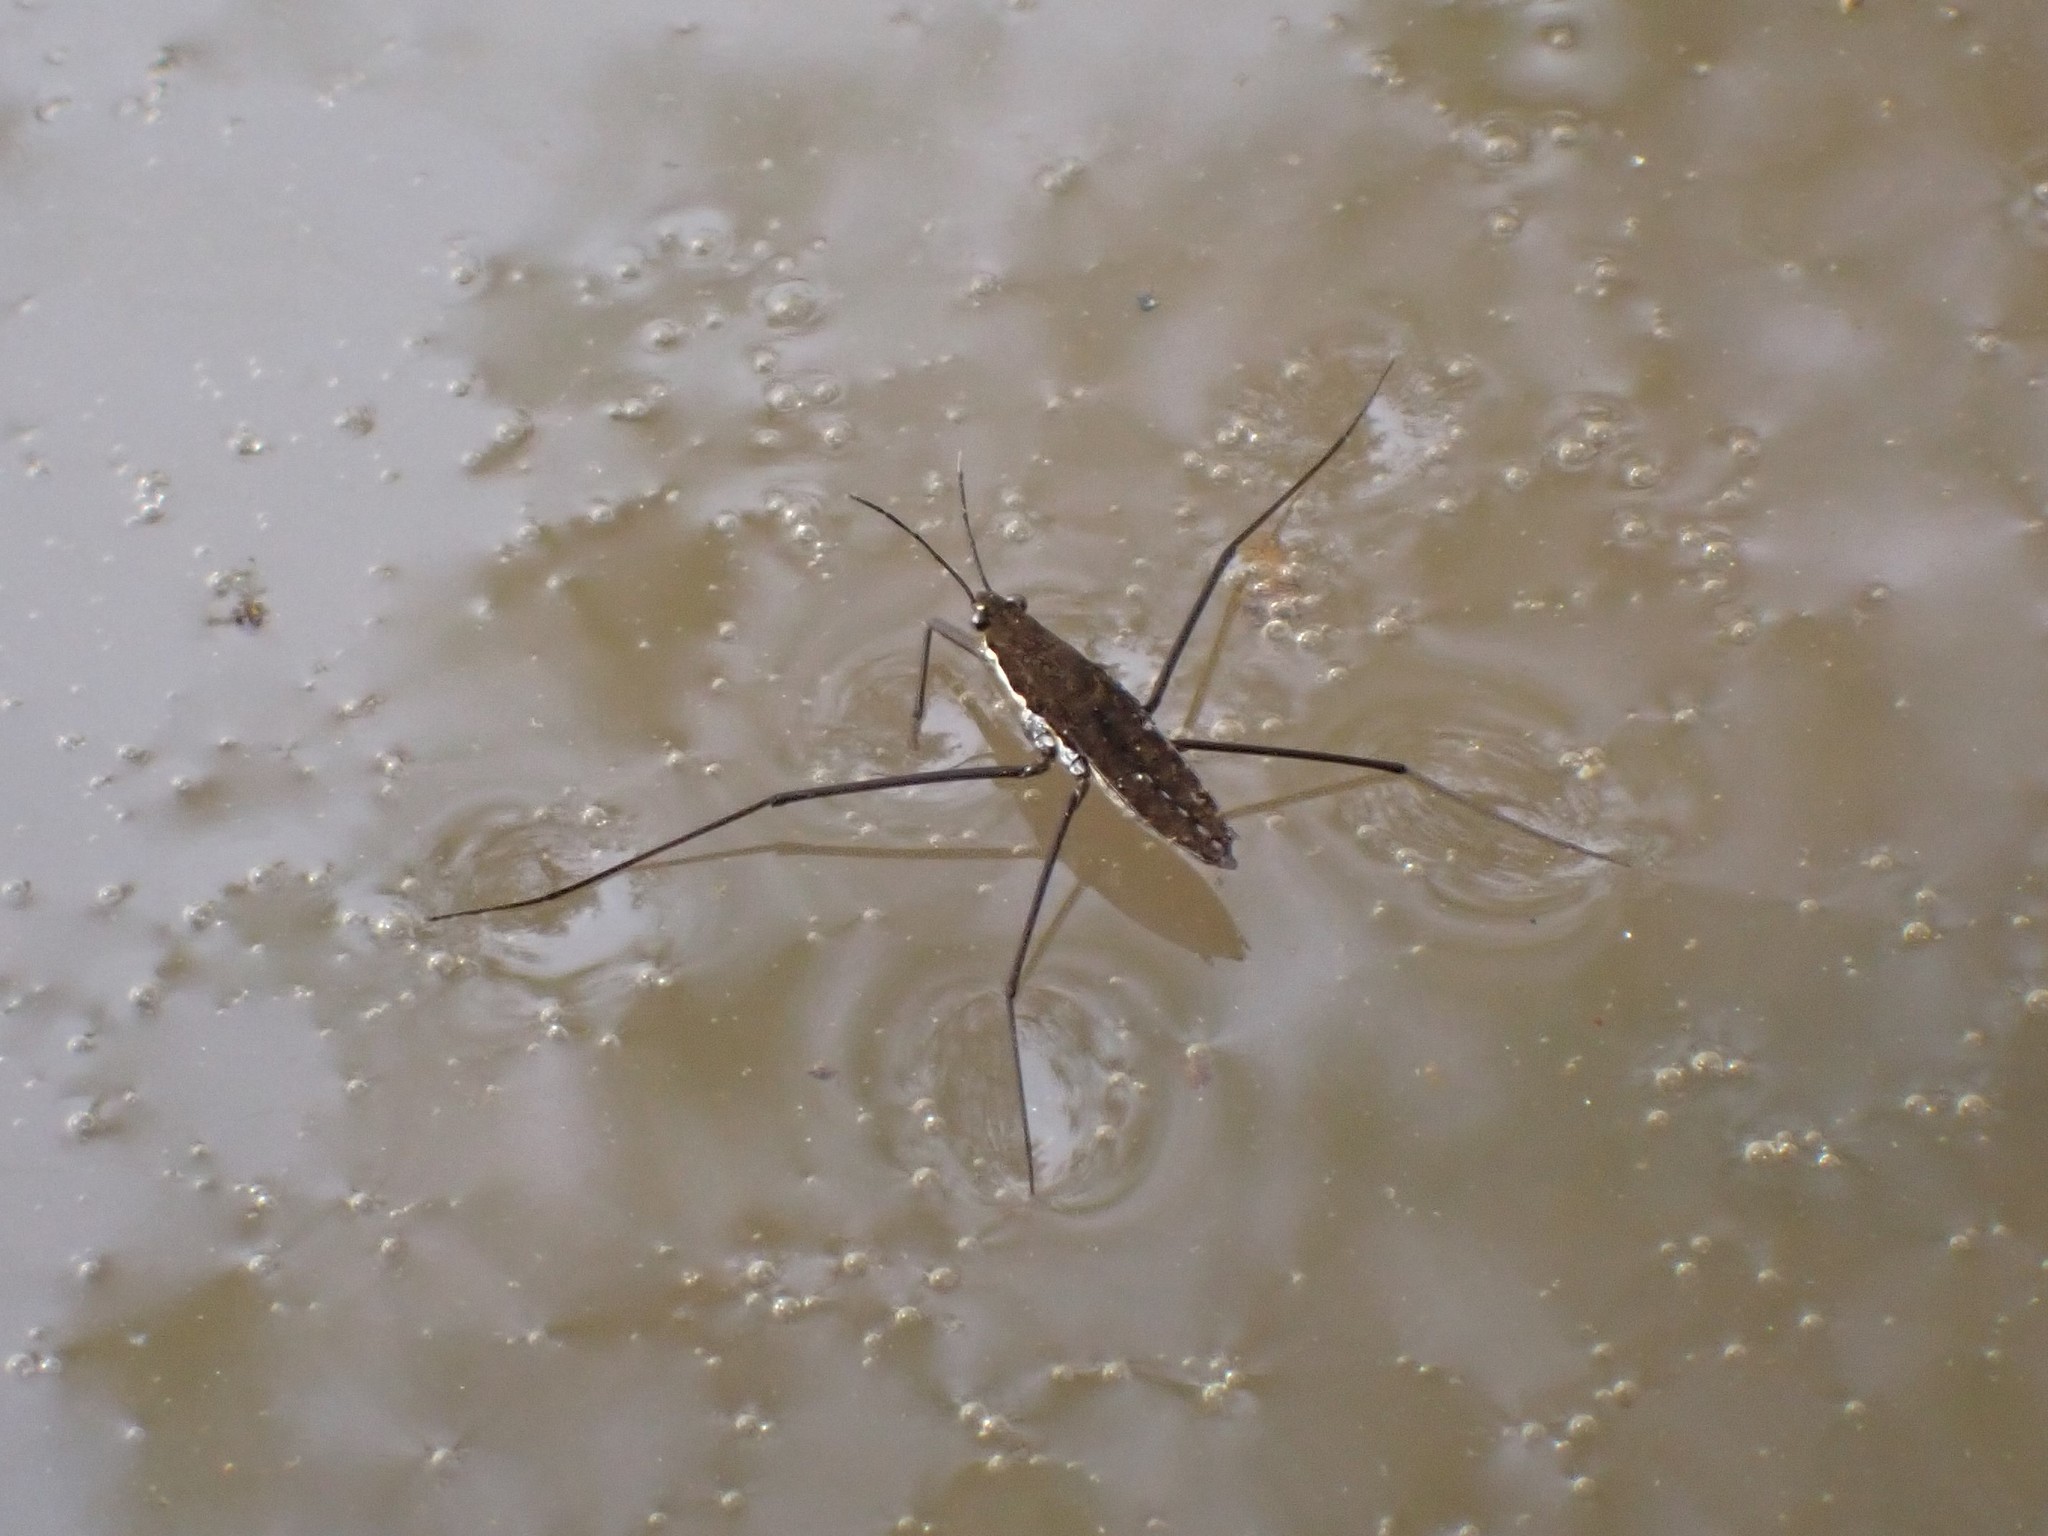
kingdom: Animalia
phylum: Arthropoda
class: Insecta
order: Hemiptera
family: Gerridae
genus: Aquarius
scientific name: Aquarius remigis
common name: Common water strider
